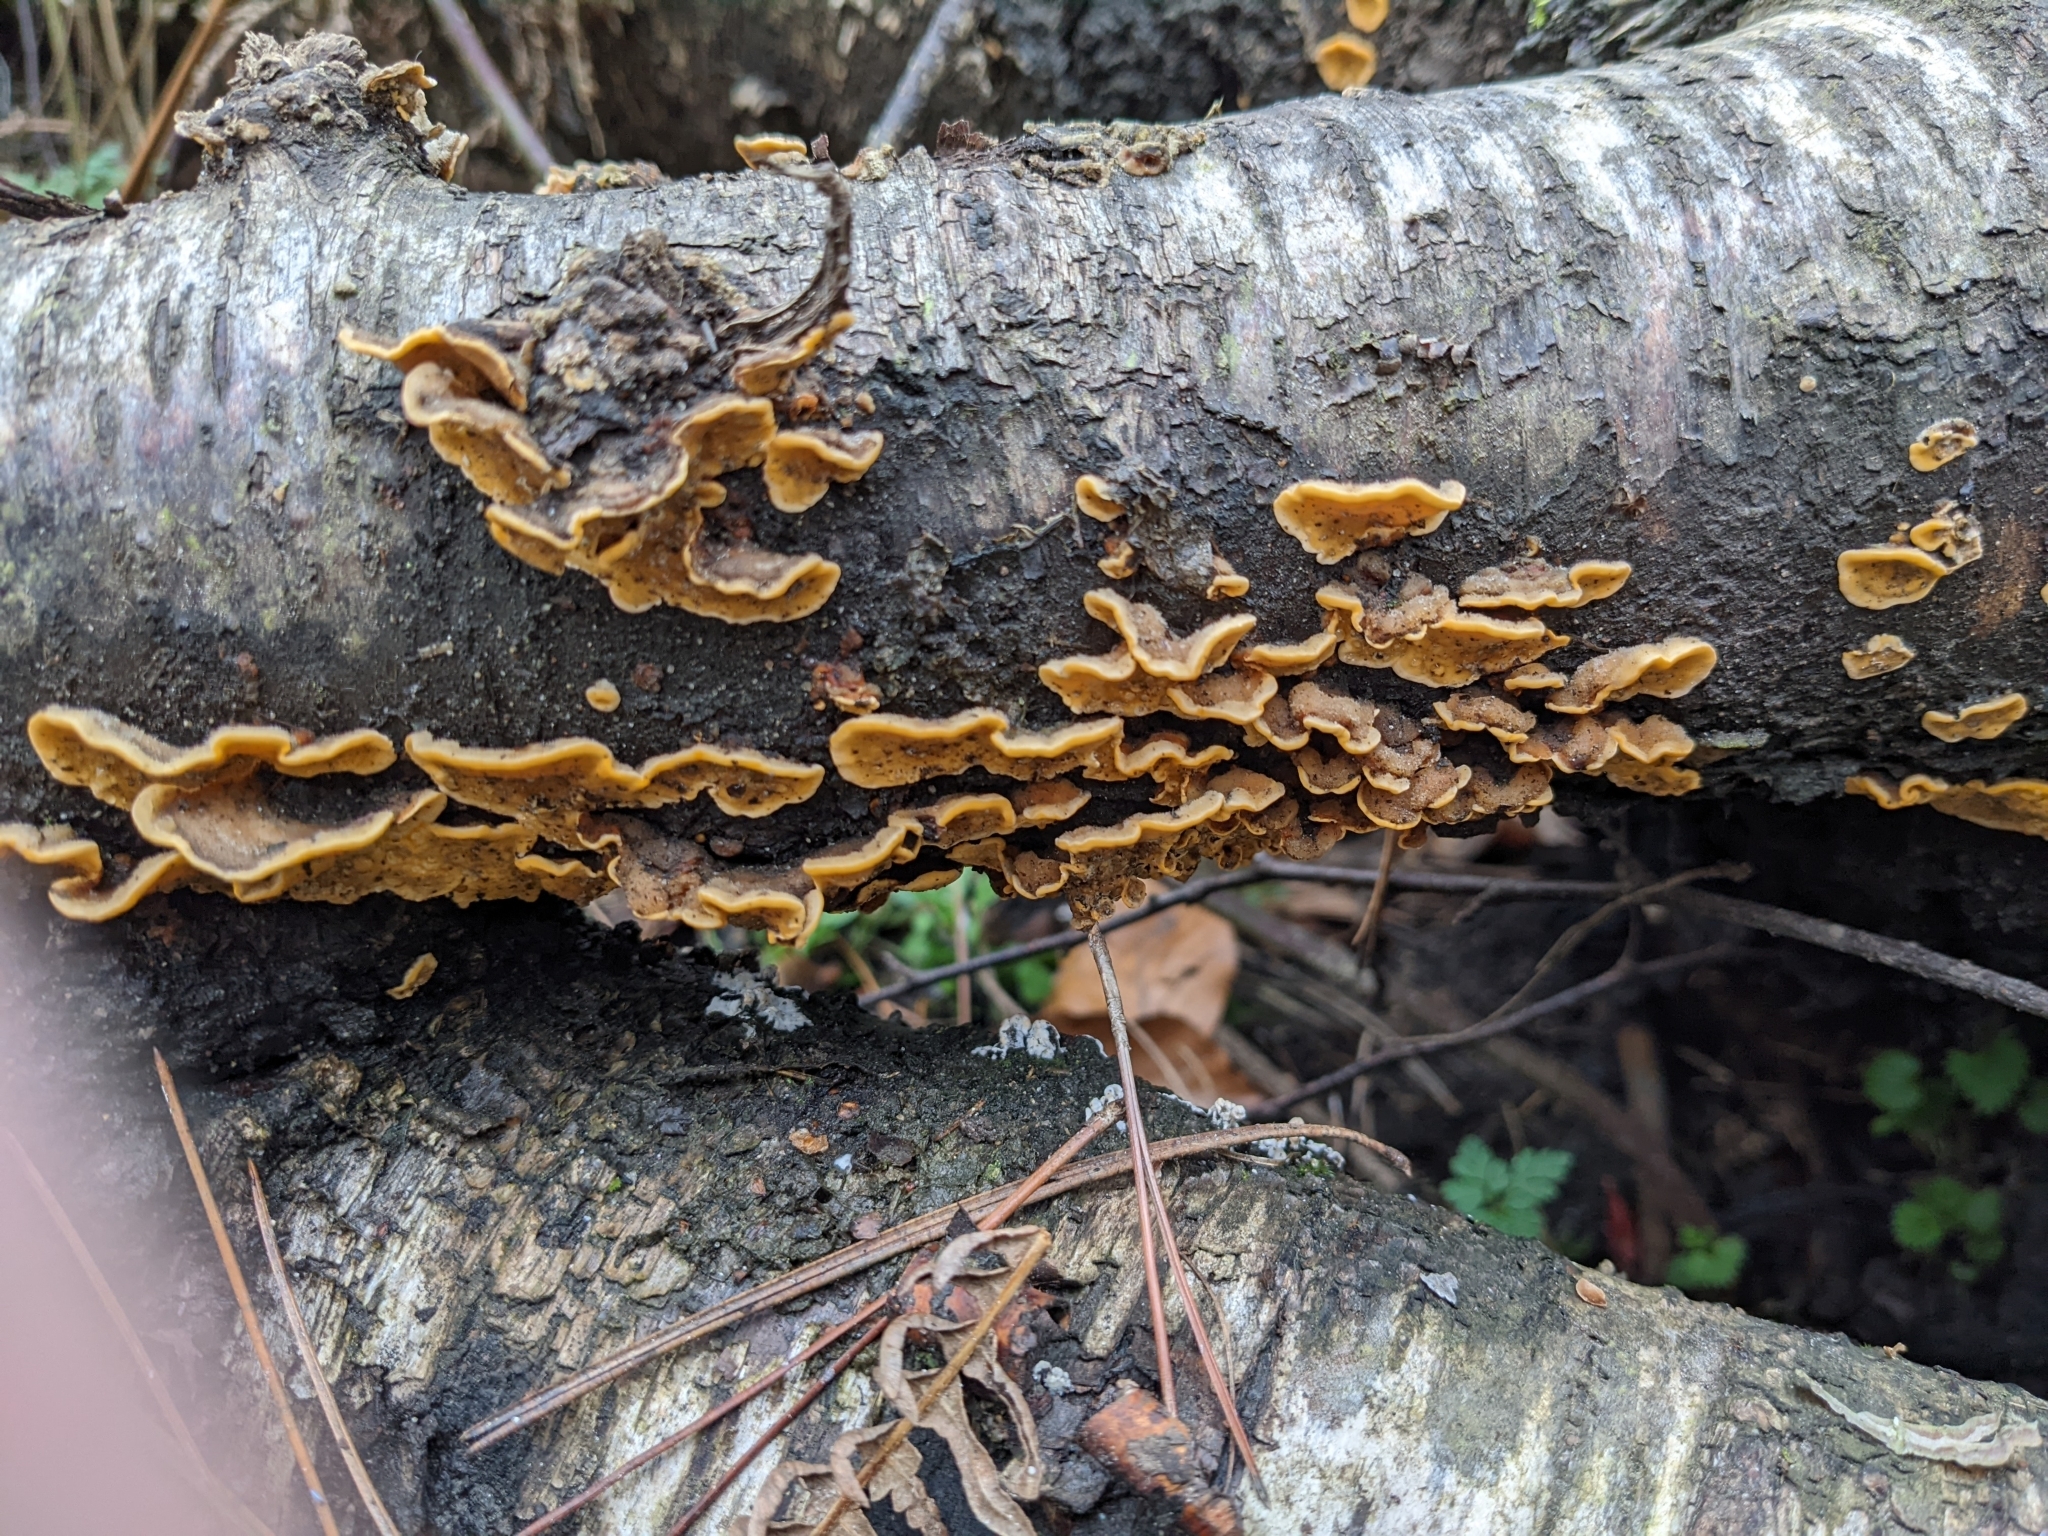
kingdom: Fungi
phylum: Basidiomycota
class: Agaricomycetes
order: Russulales
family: Stereaceae
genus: Stereum
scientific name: Stereum hirsutum
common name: Hairy curtain crust
